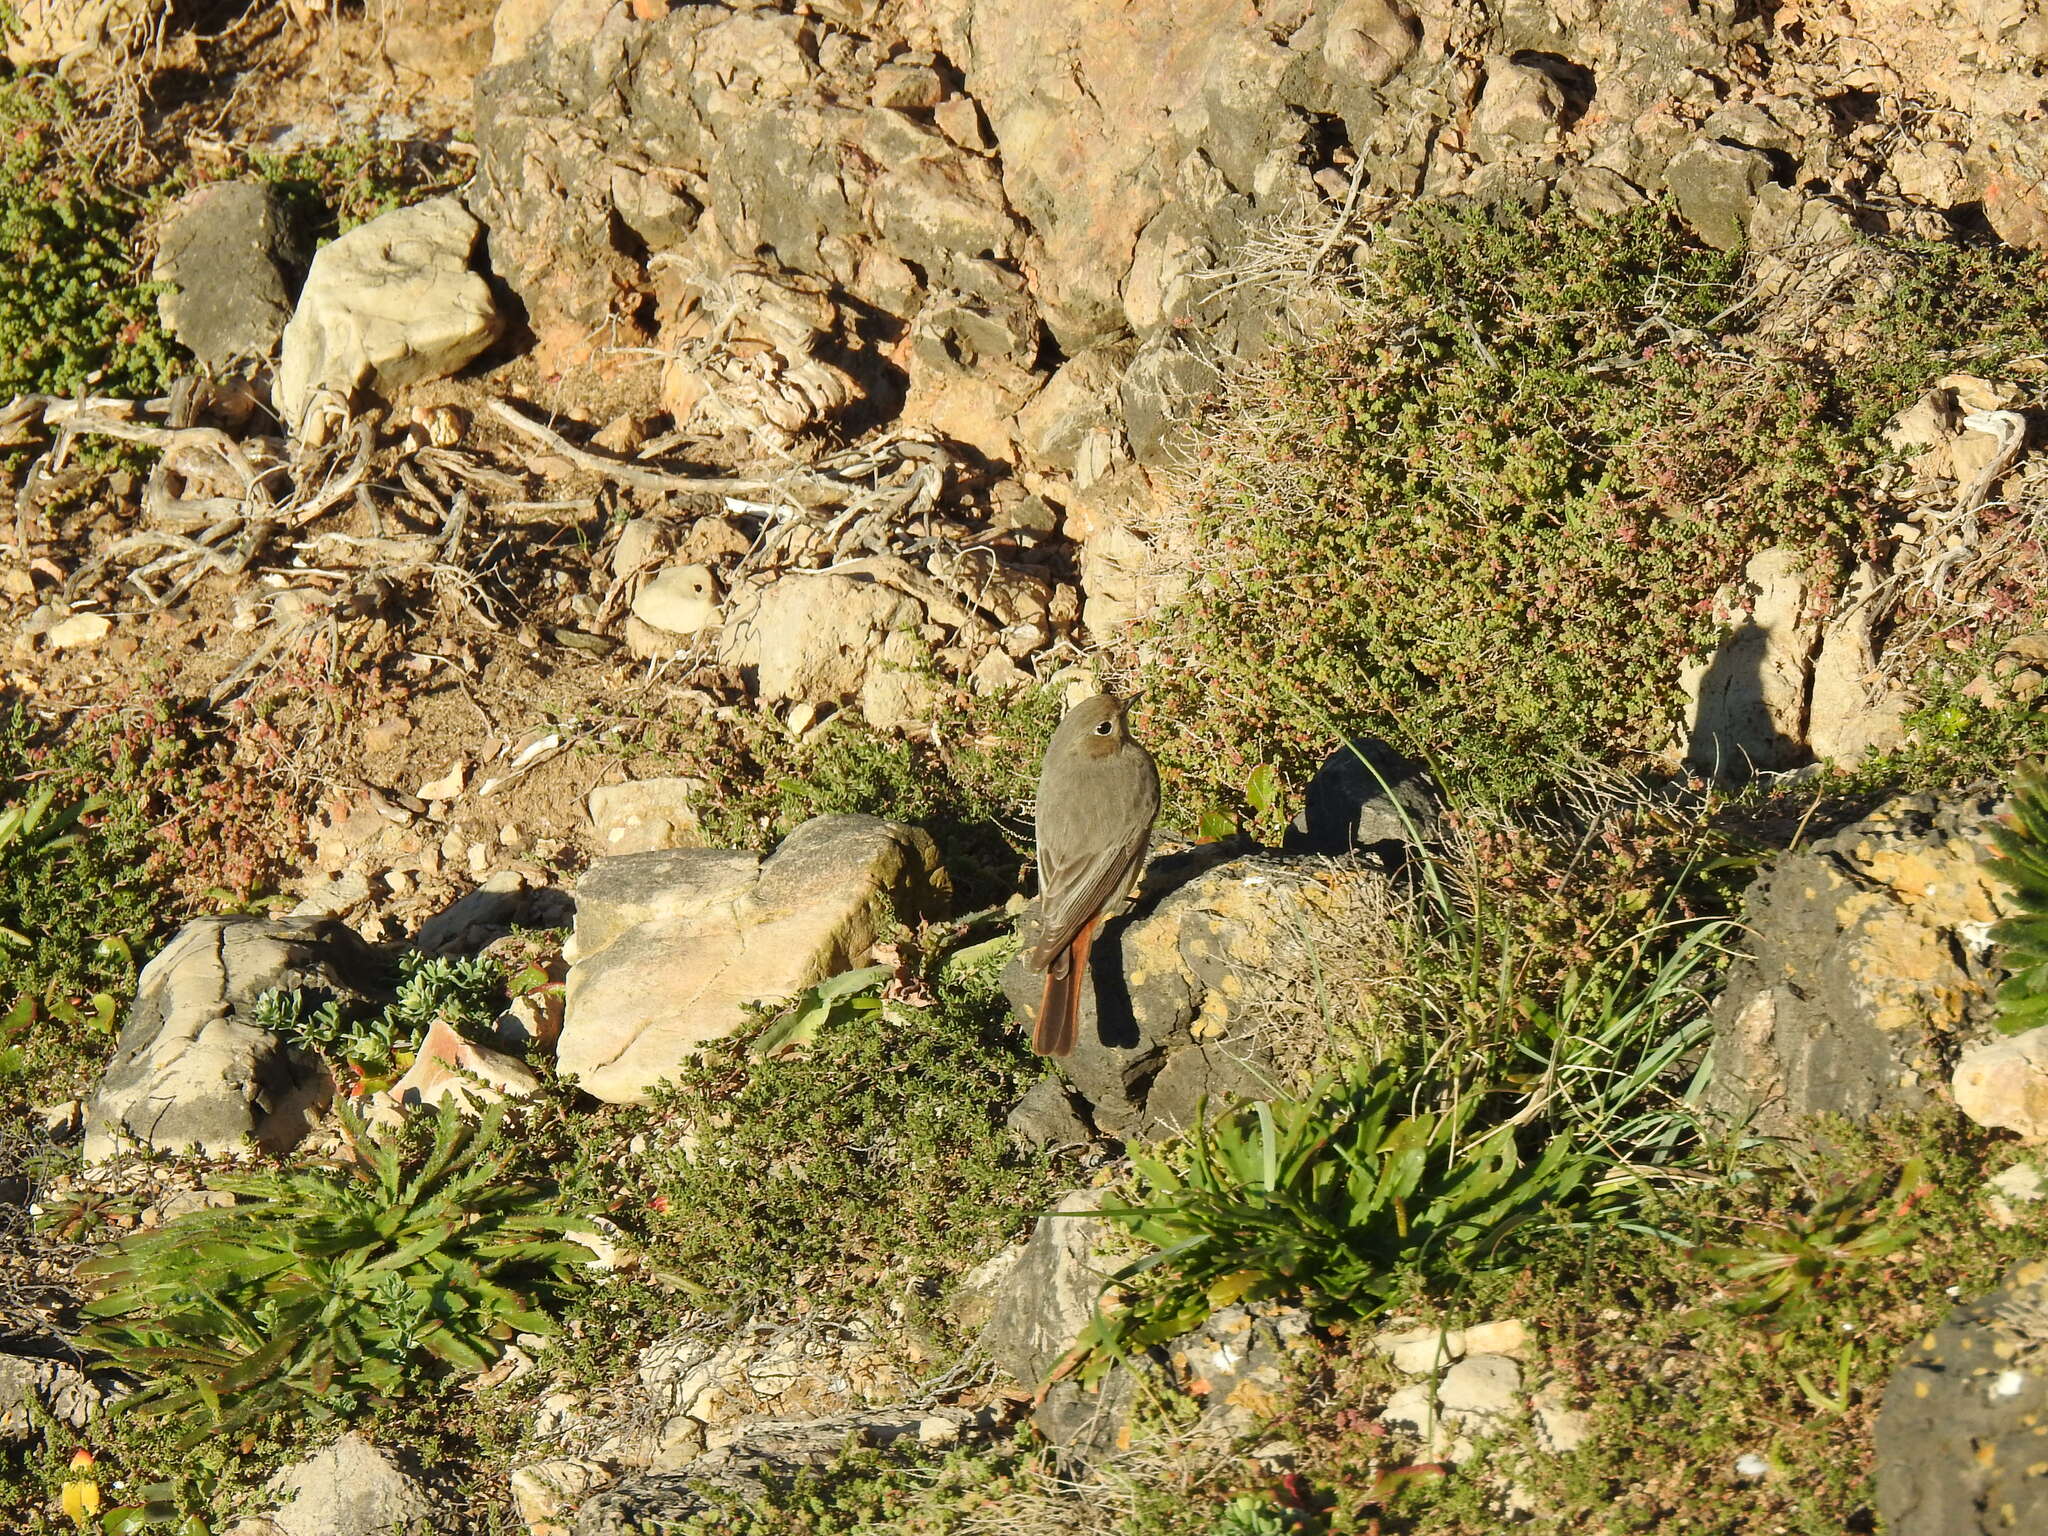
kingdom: Animalia
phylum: Chordata
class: Aves
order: Passeriformes
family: Muscicapidae
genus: Phoenicurus
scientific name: Phoenicurus ochruros
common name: Black redstart
